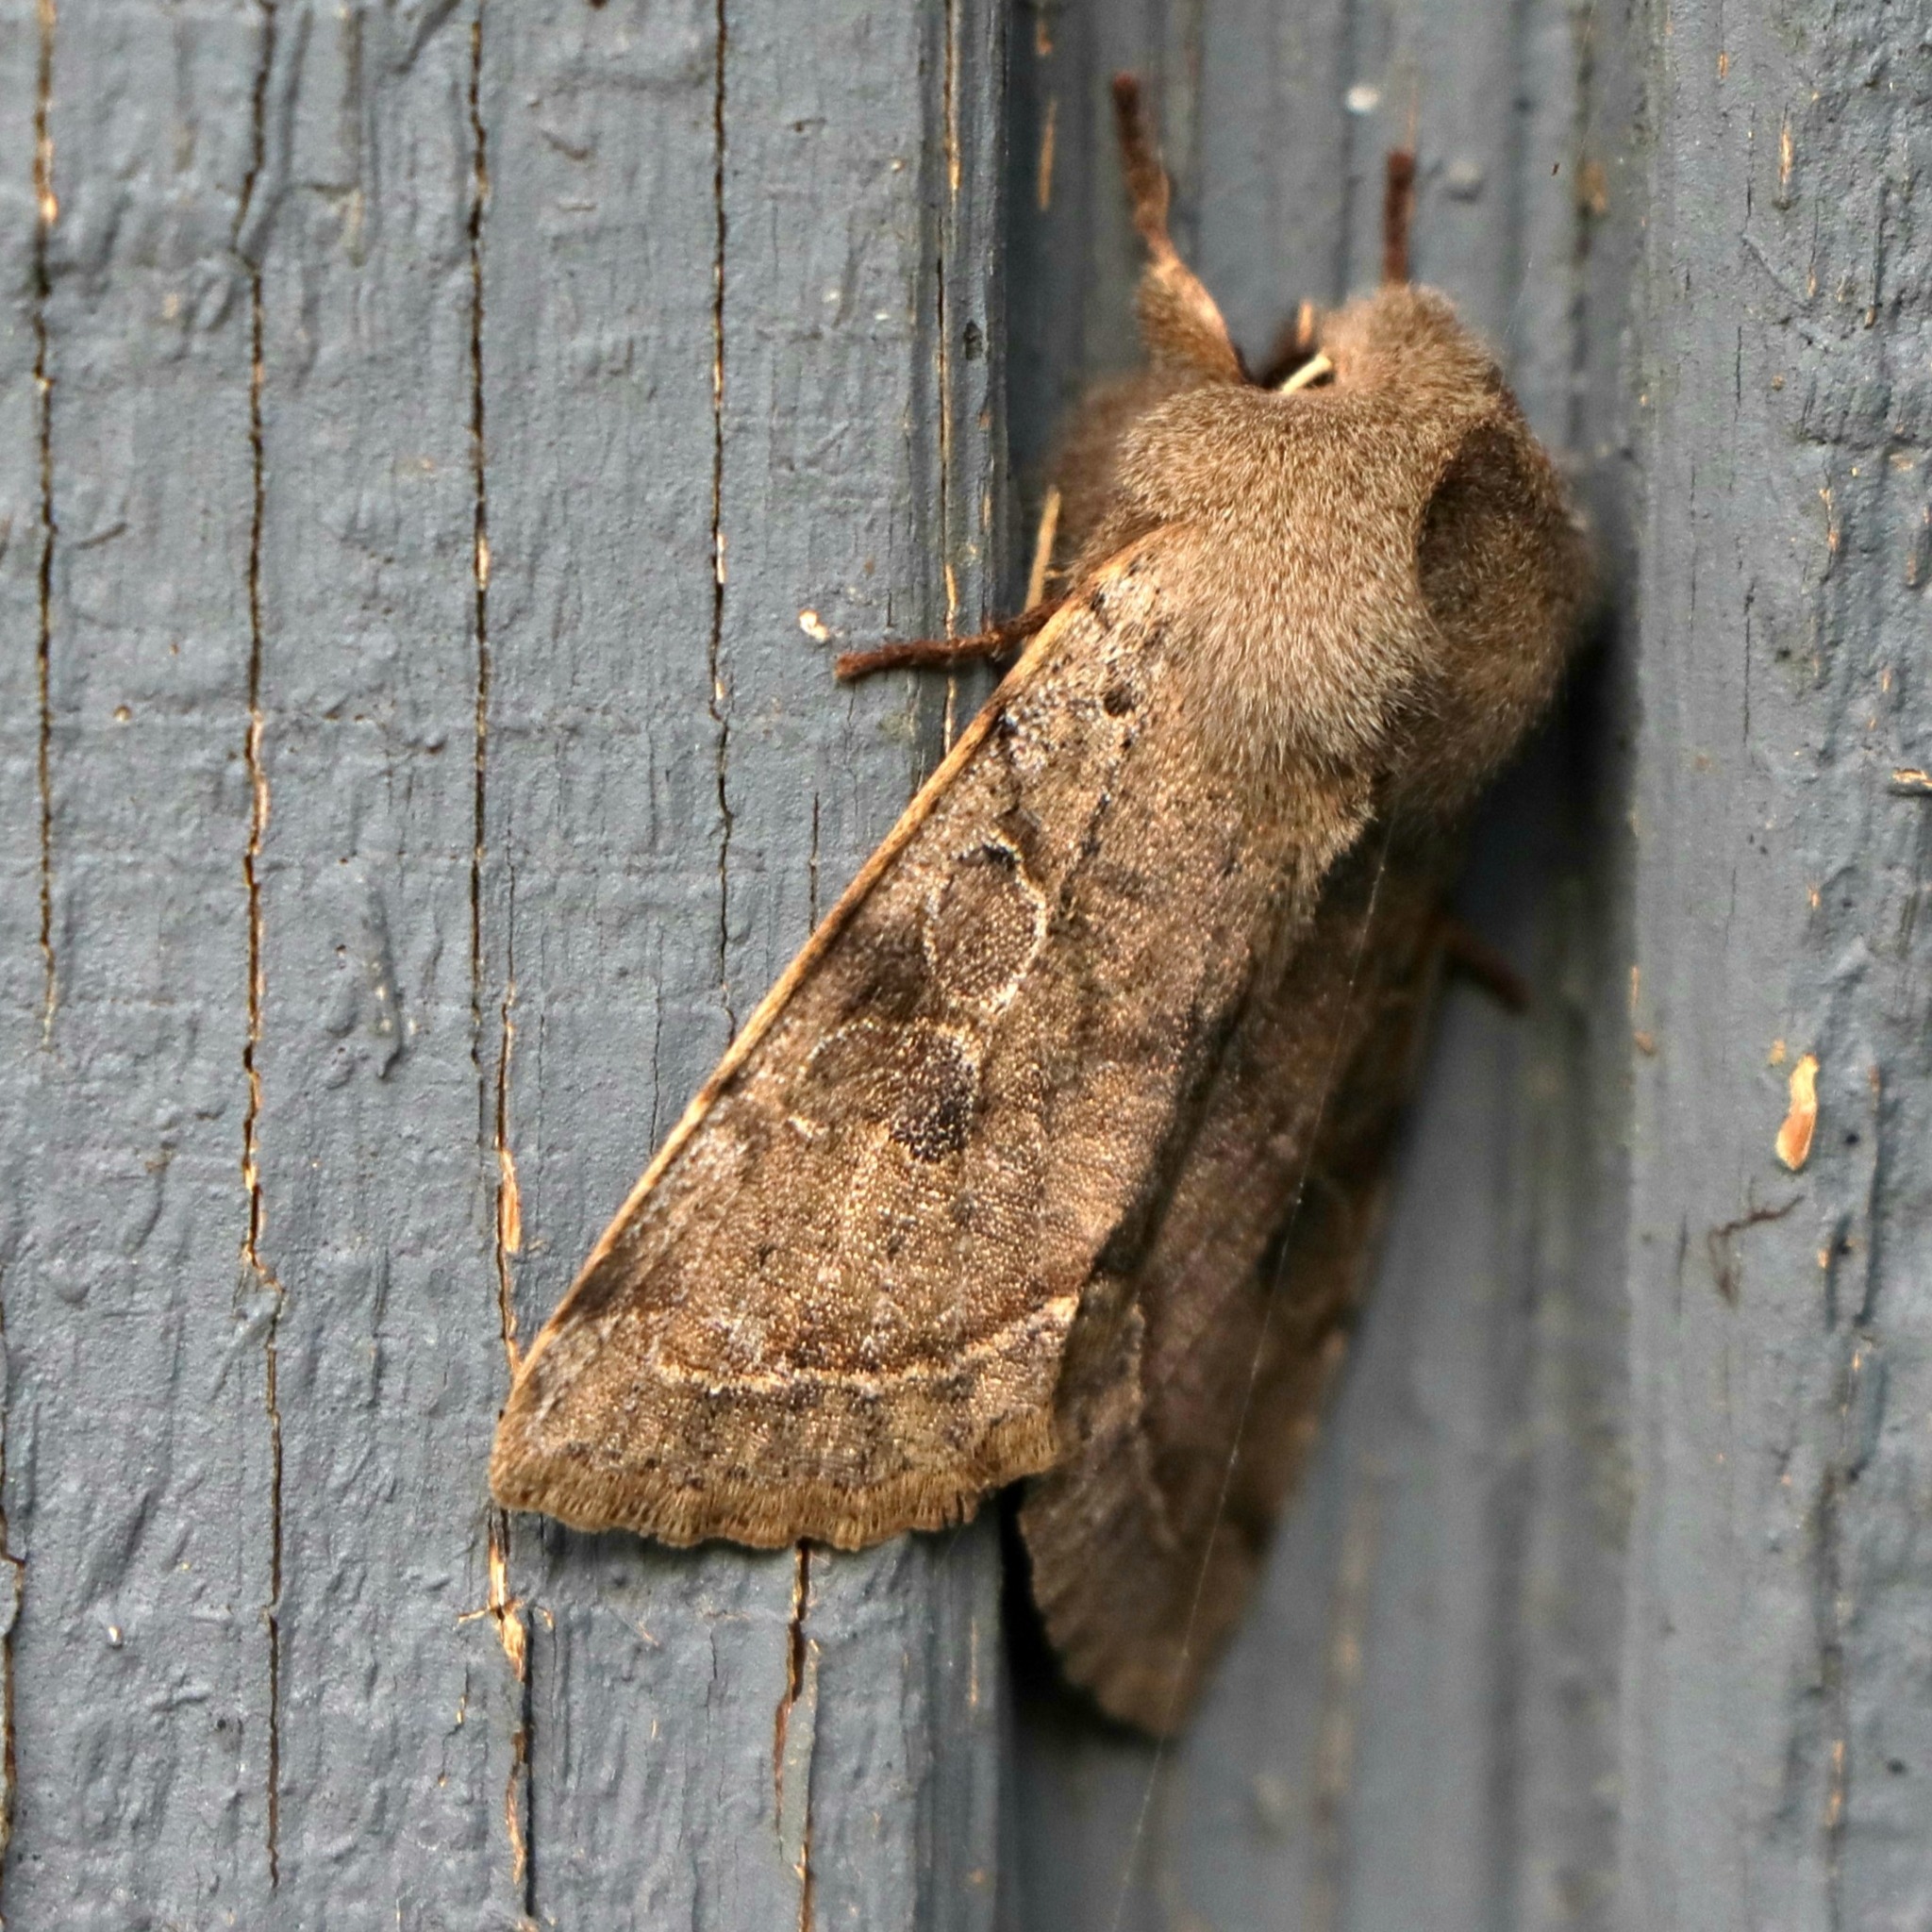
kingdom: Animalia
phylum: Arthropoda
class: Insecta
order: Lepidoptera
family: Noctuidae
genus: Orthosia
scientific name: Orthosia hibisci
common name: Green fruitworm
